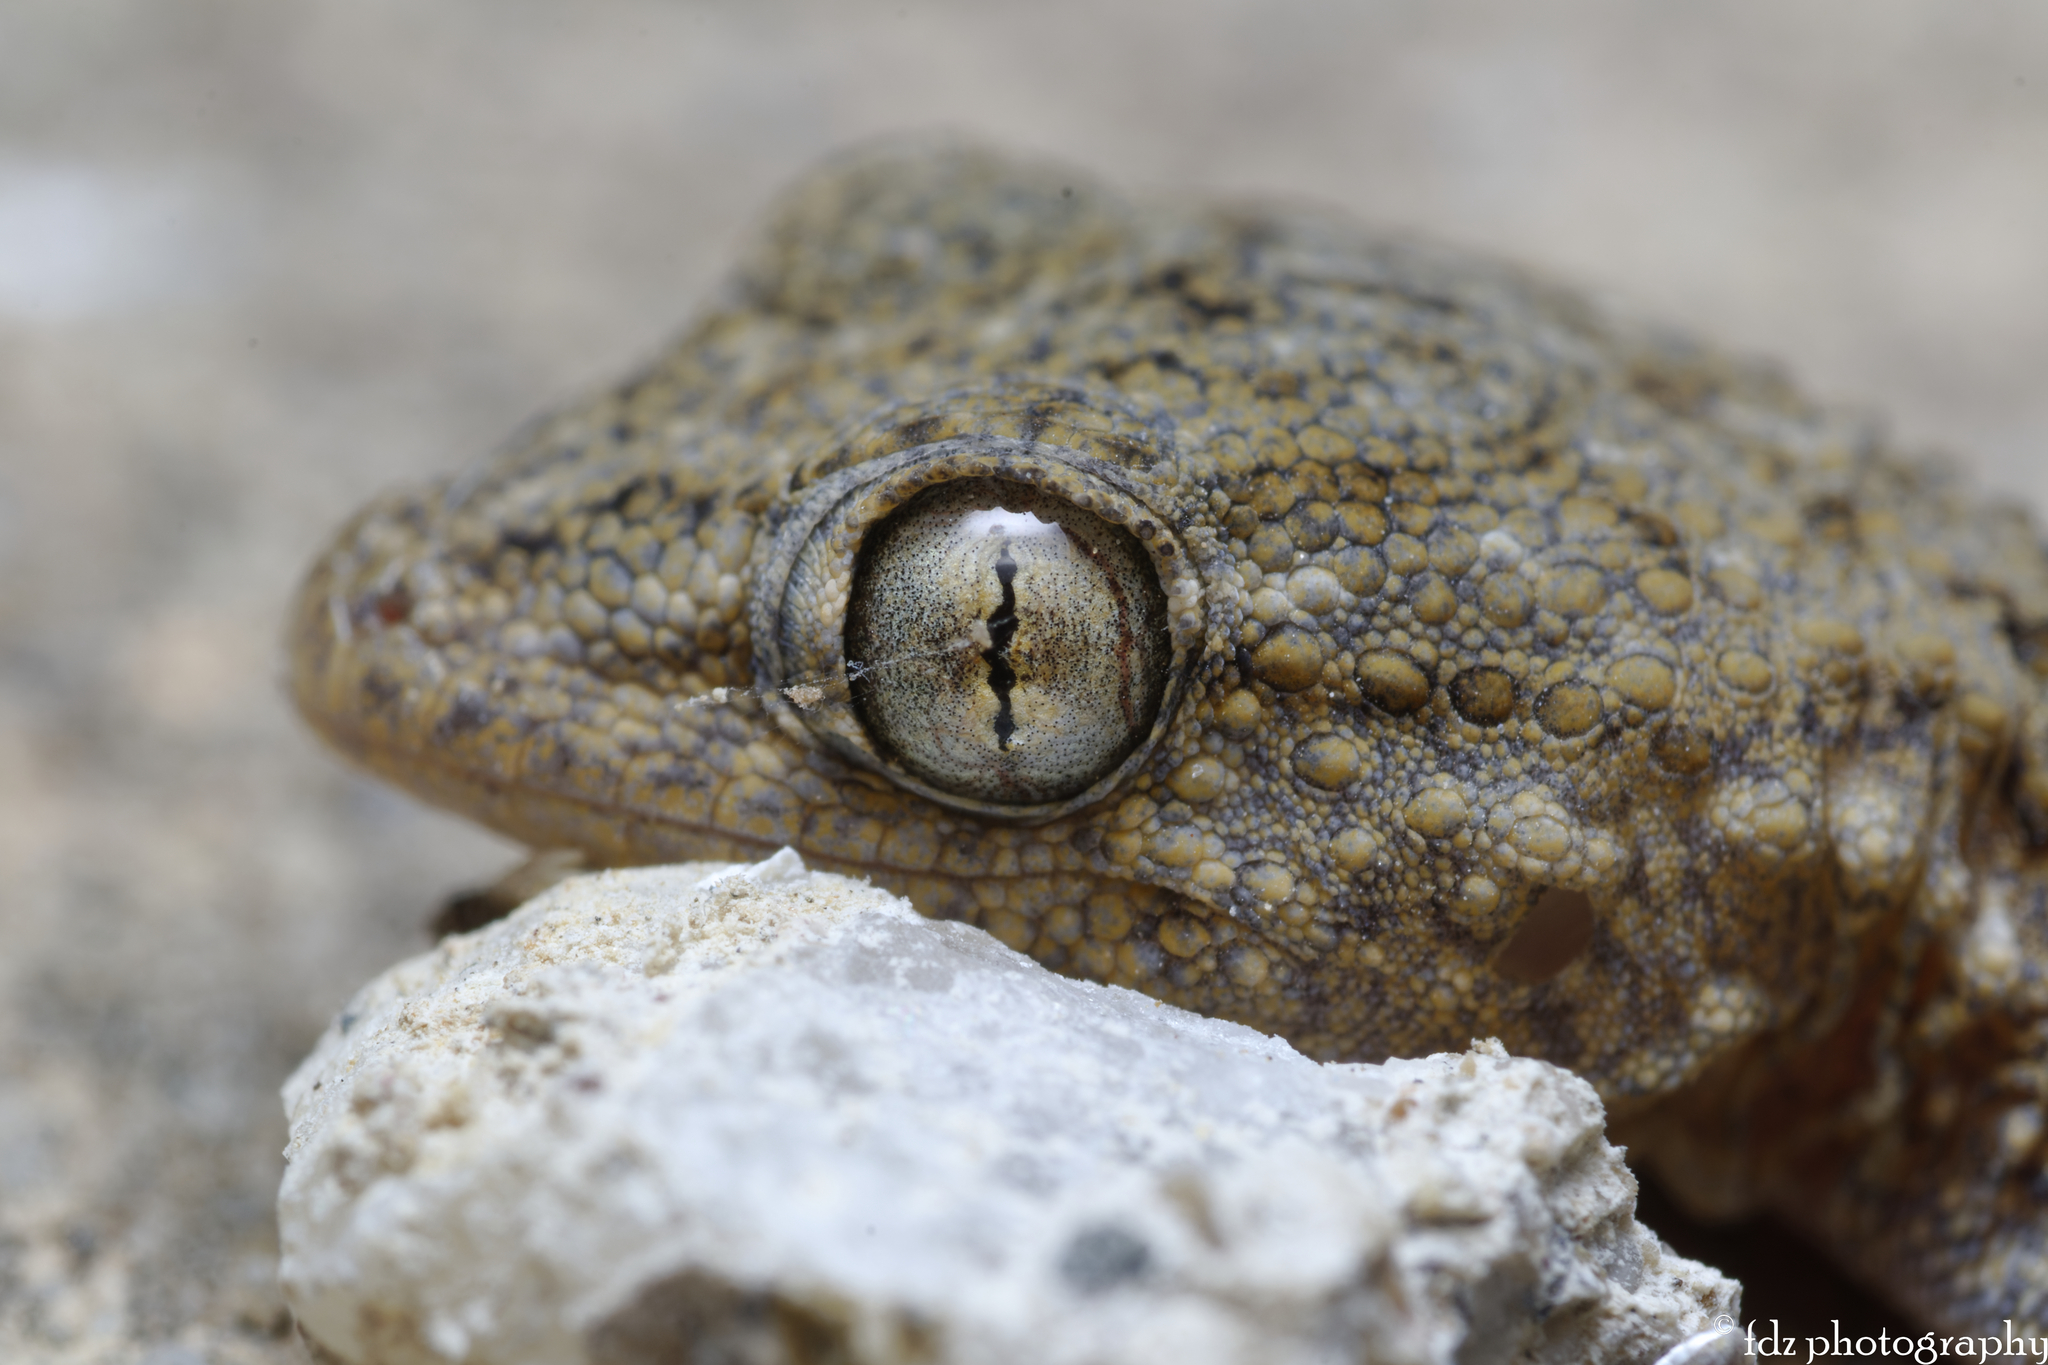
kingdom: Animalia
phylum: Chordata
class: Squamata
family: Phyllodactylidae
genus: Tarentola
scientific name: Tarentola mauritanica
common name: Moorish gecko
